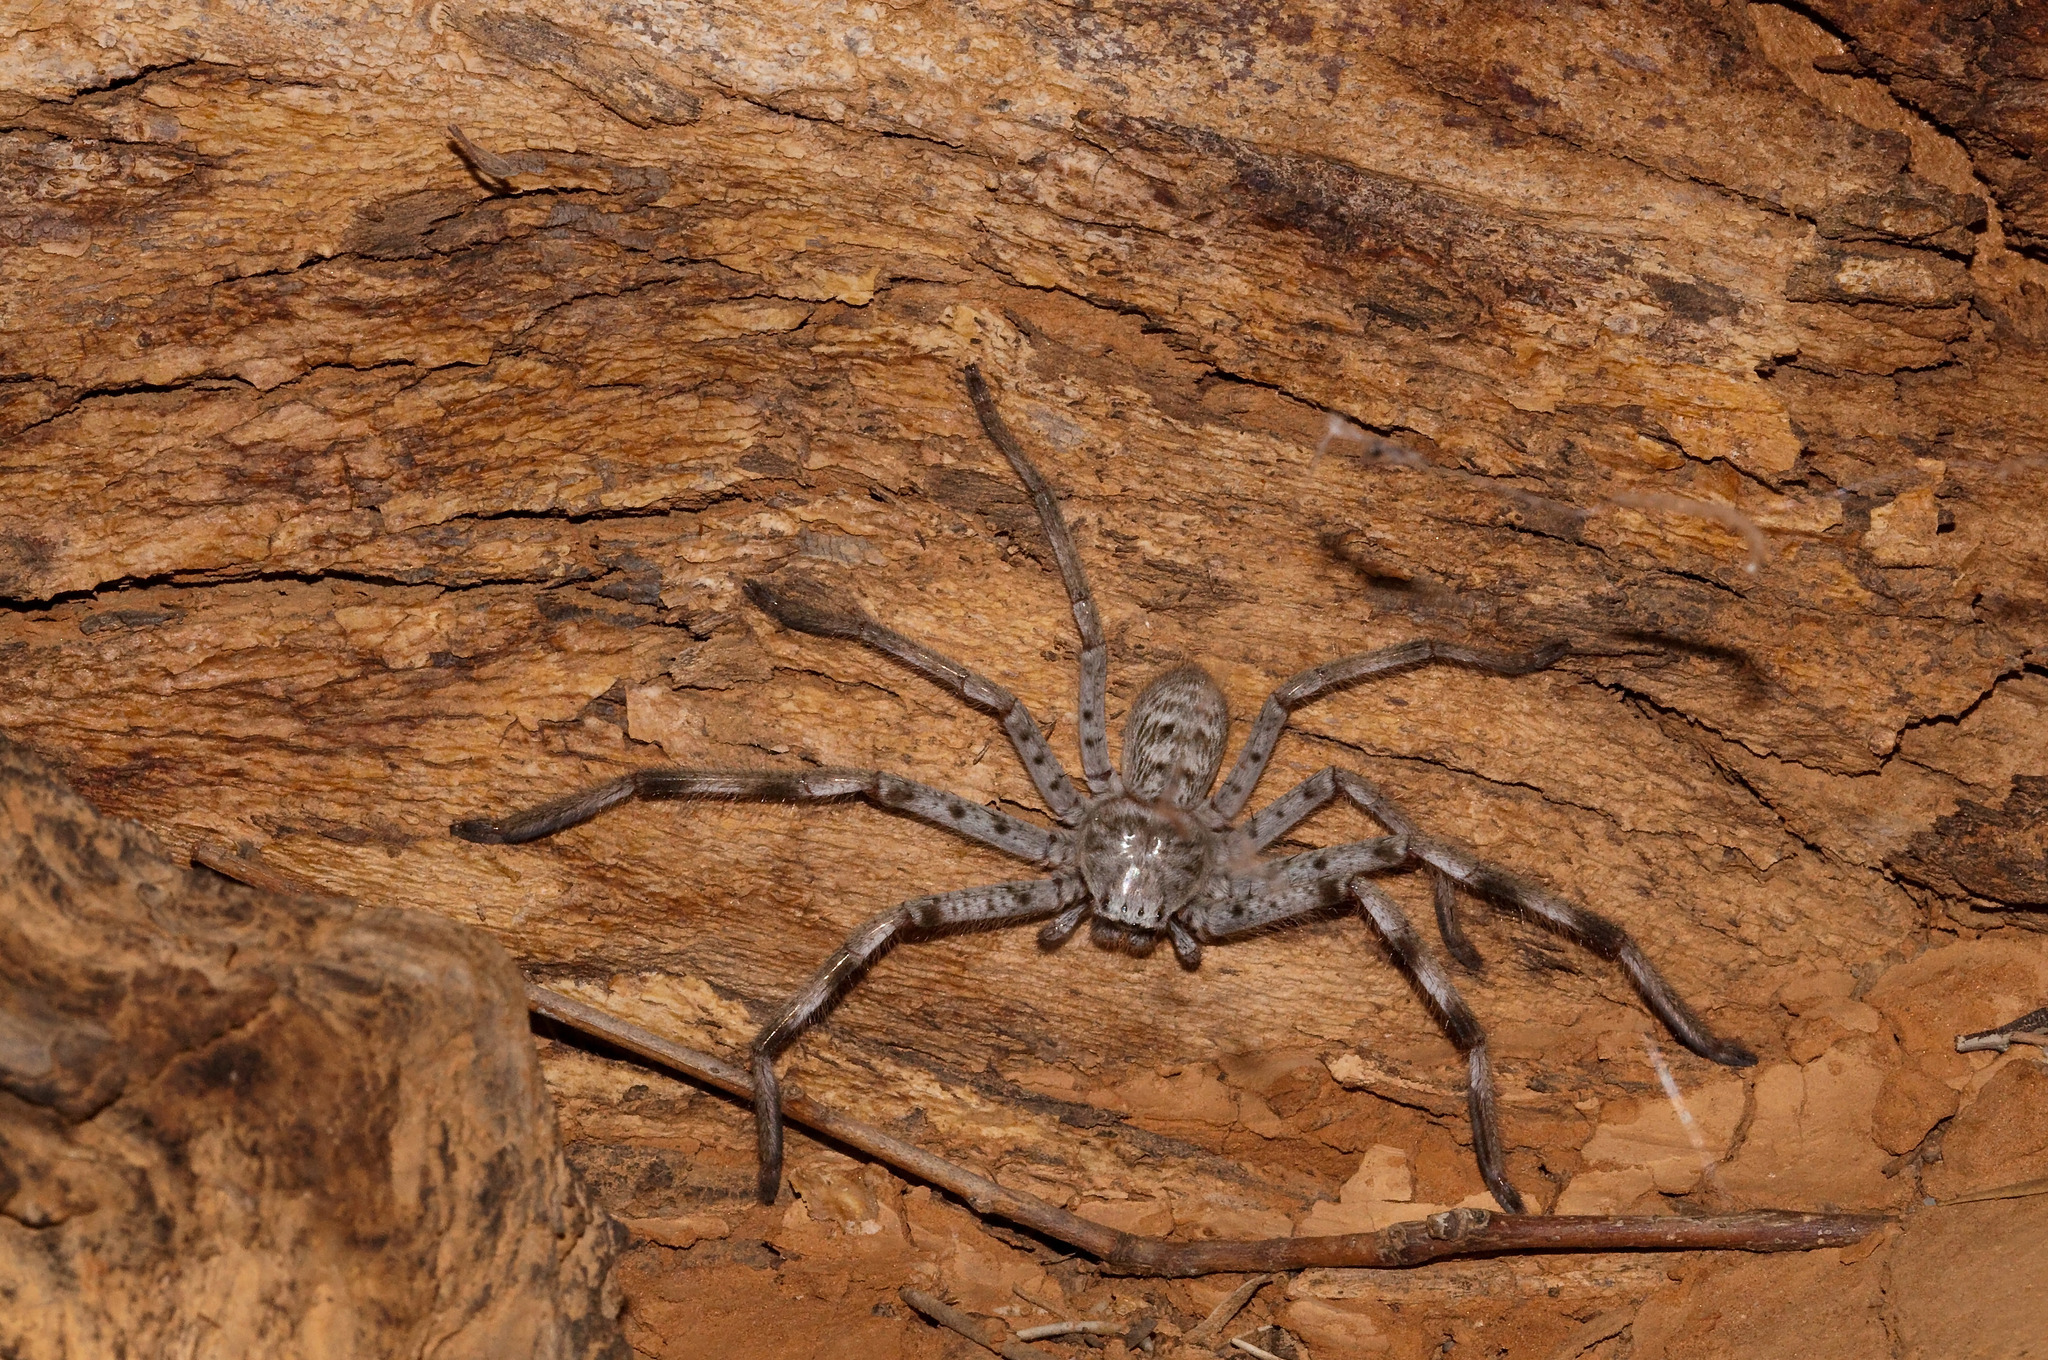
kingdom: Animalia
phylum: Arthropoda
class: Arachnida
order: Araneae
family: Sparassidae
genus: Holconia
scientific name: Holconia flindersi
